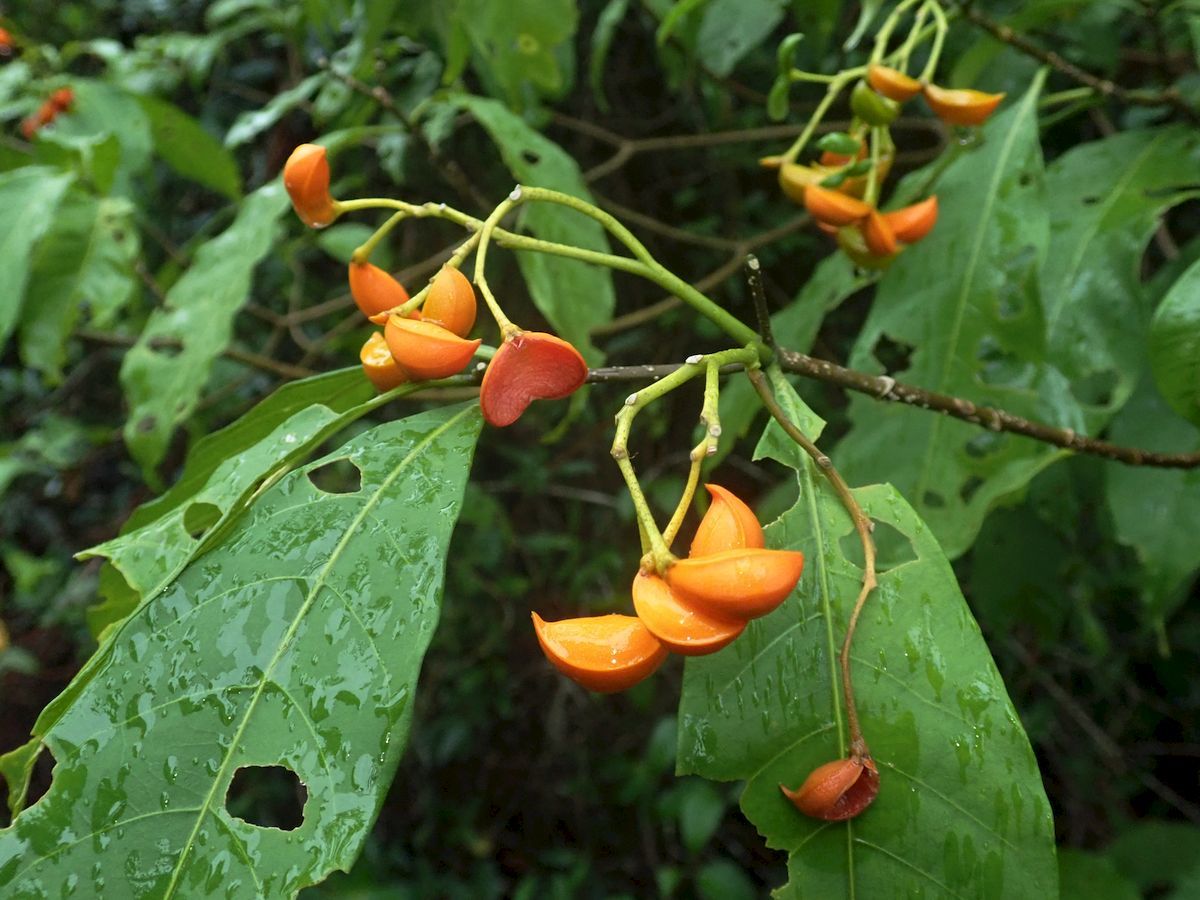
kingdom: Plantae
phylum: Tracheophyta
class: Magnoliopsida
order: Gentianales
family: Apocynaceae
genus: Tabernaemontana
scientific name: Tabernaemontana pandacaqui
